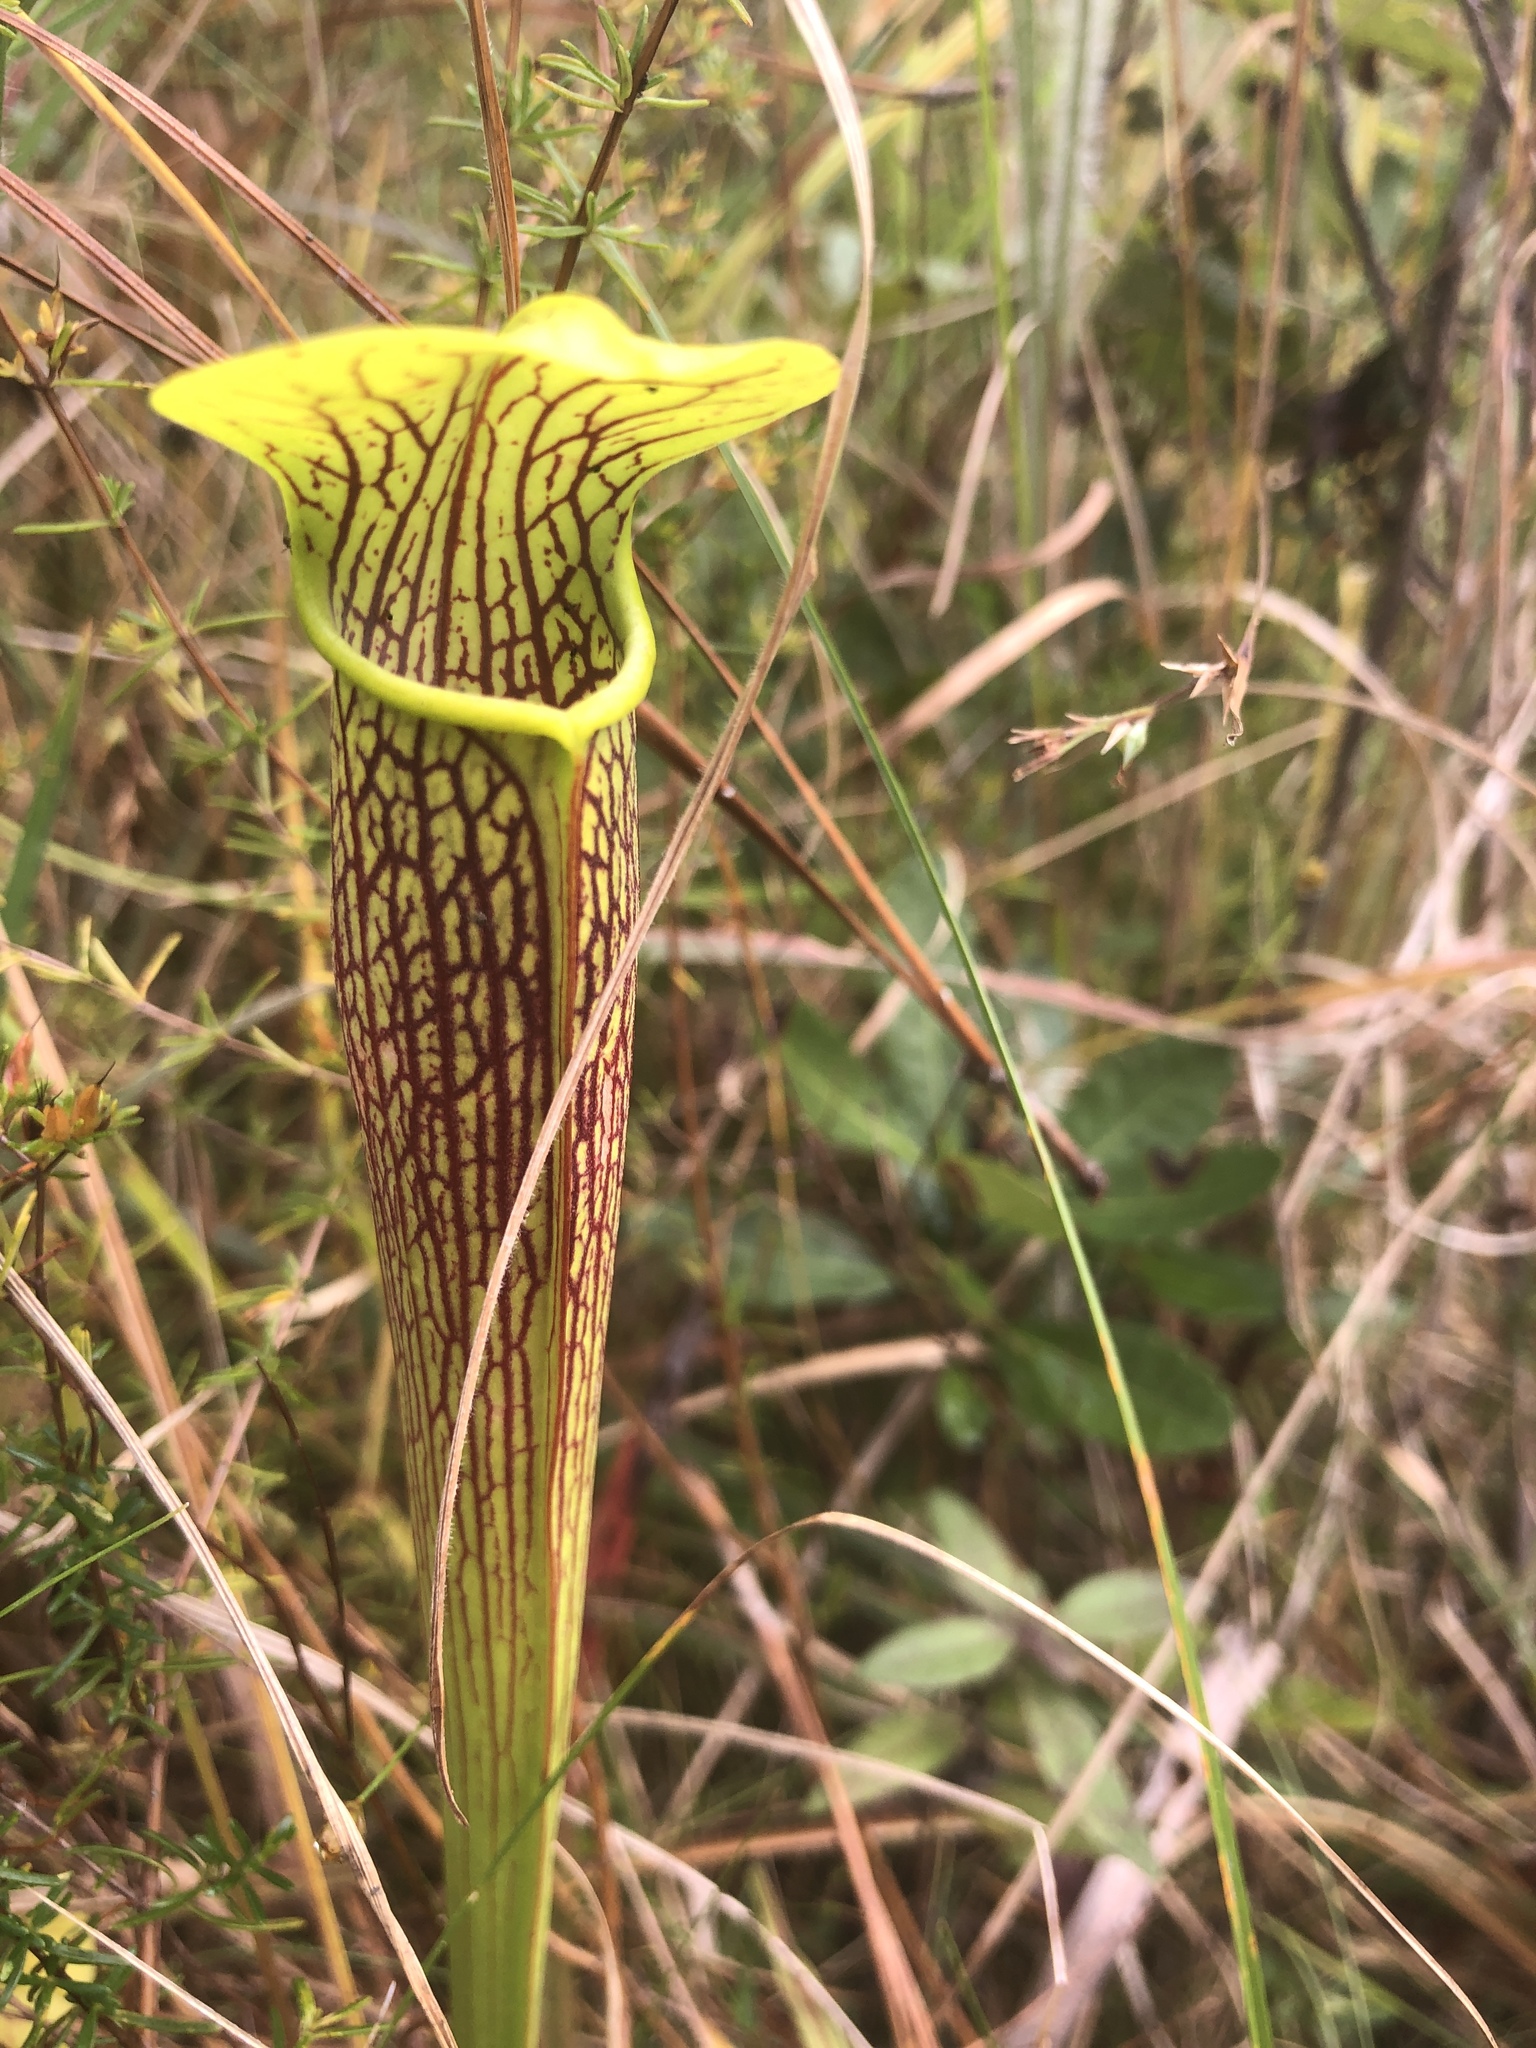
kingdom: Plantae
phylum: Tracheophyta
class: Magnoliopsida
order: Ericales
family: Sarraceniaceae
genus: Sarracenia
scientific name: Sarracenia alata
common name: Yellow trumpets
